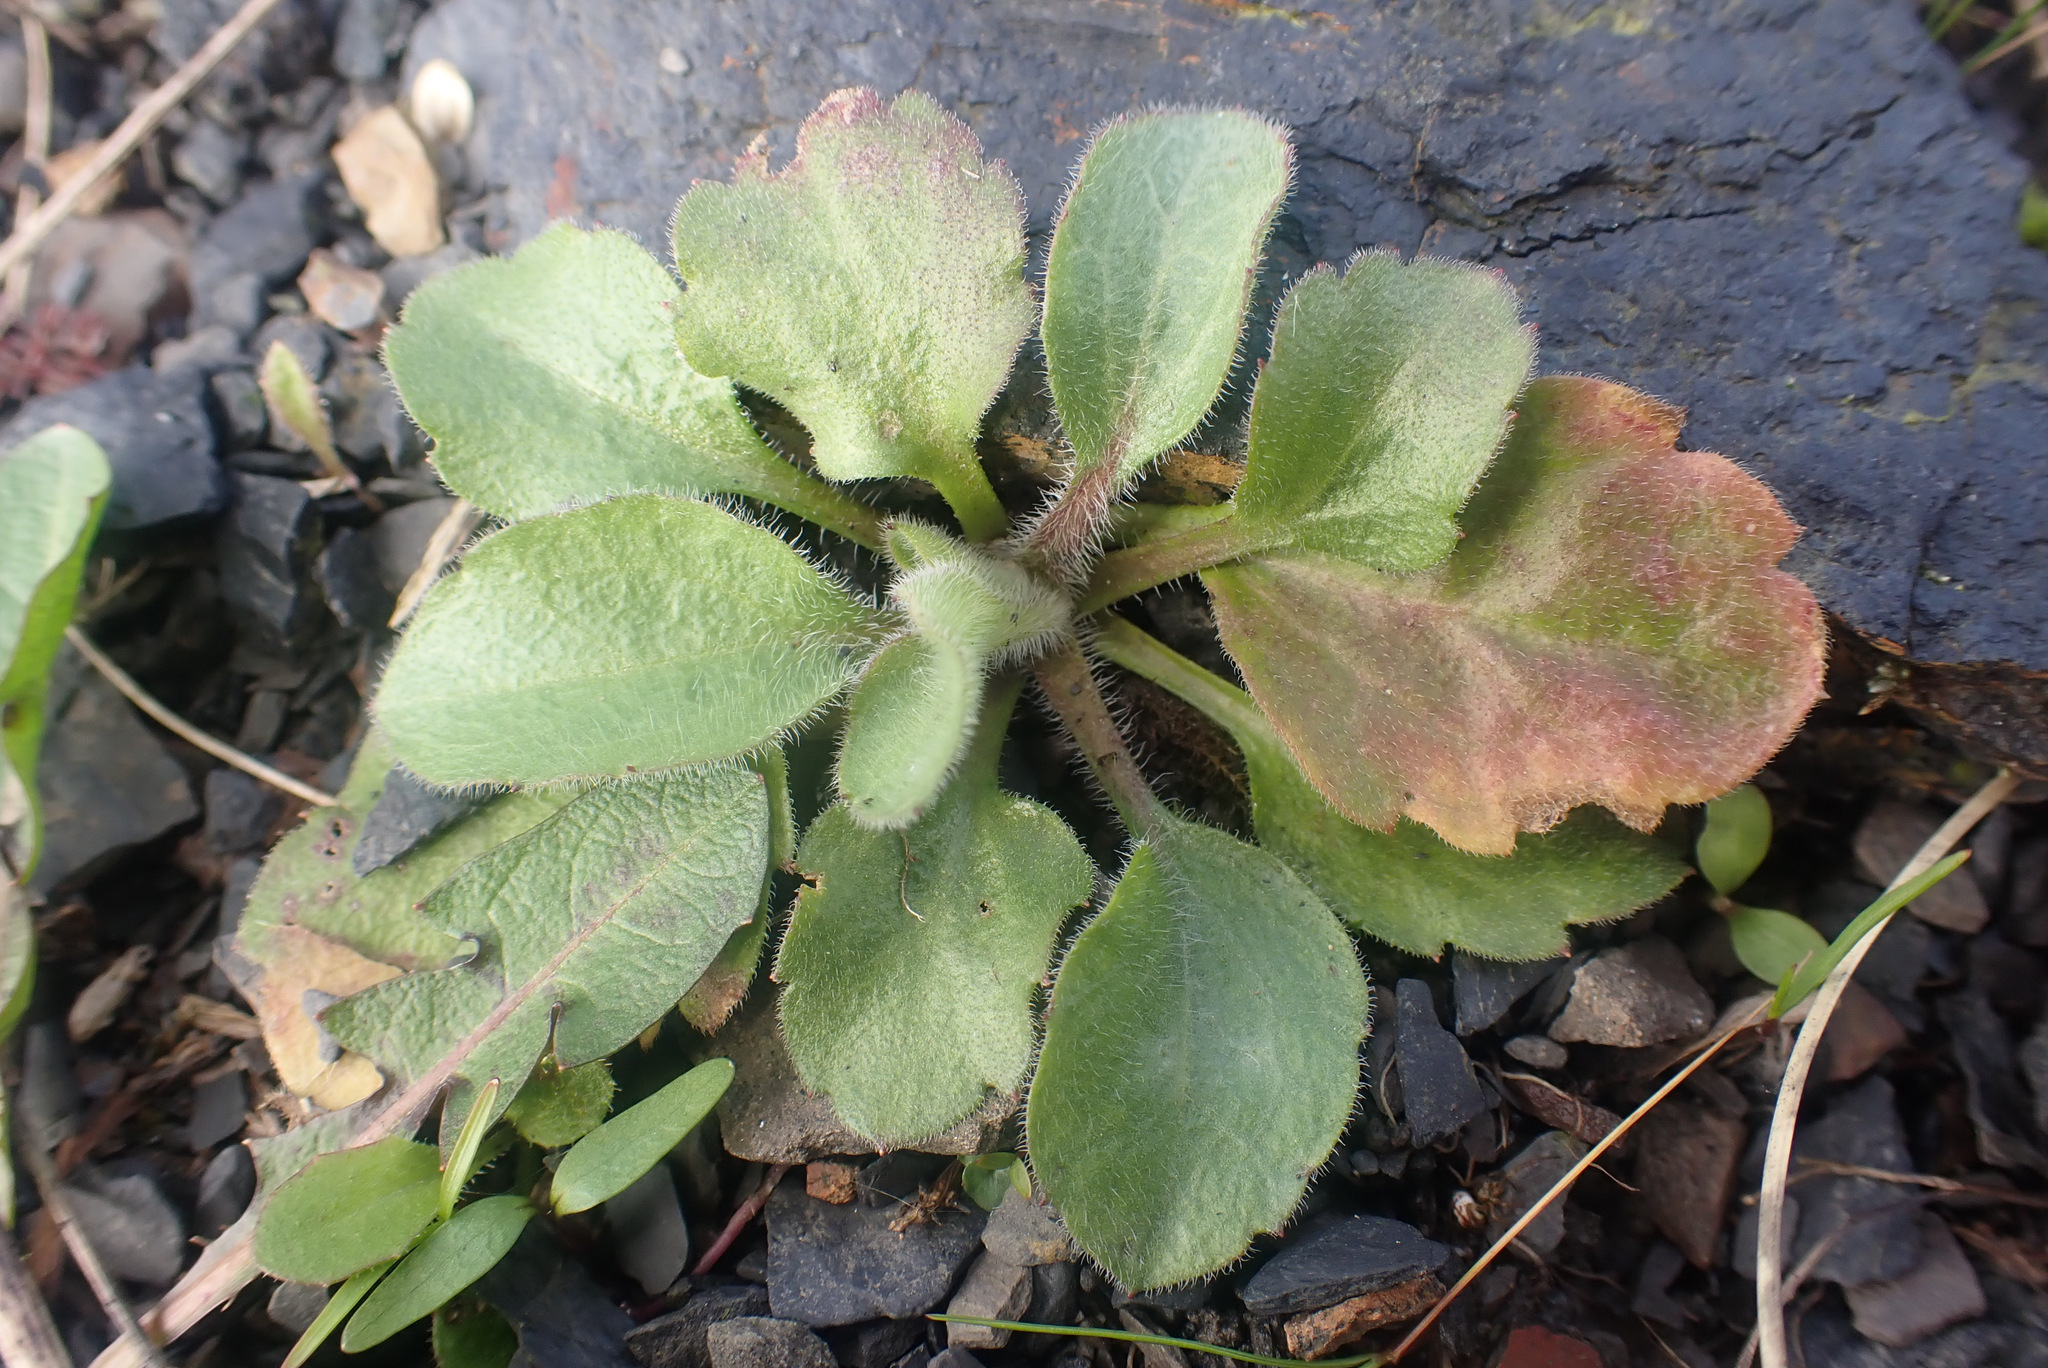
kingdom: Plantae
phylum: Tracheophyta
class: Magnoliopsida
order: Asterales
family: Asteraceae
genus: Erigeron
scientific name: Erigeron annuus
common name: Tall fleabane
